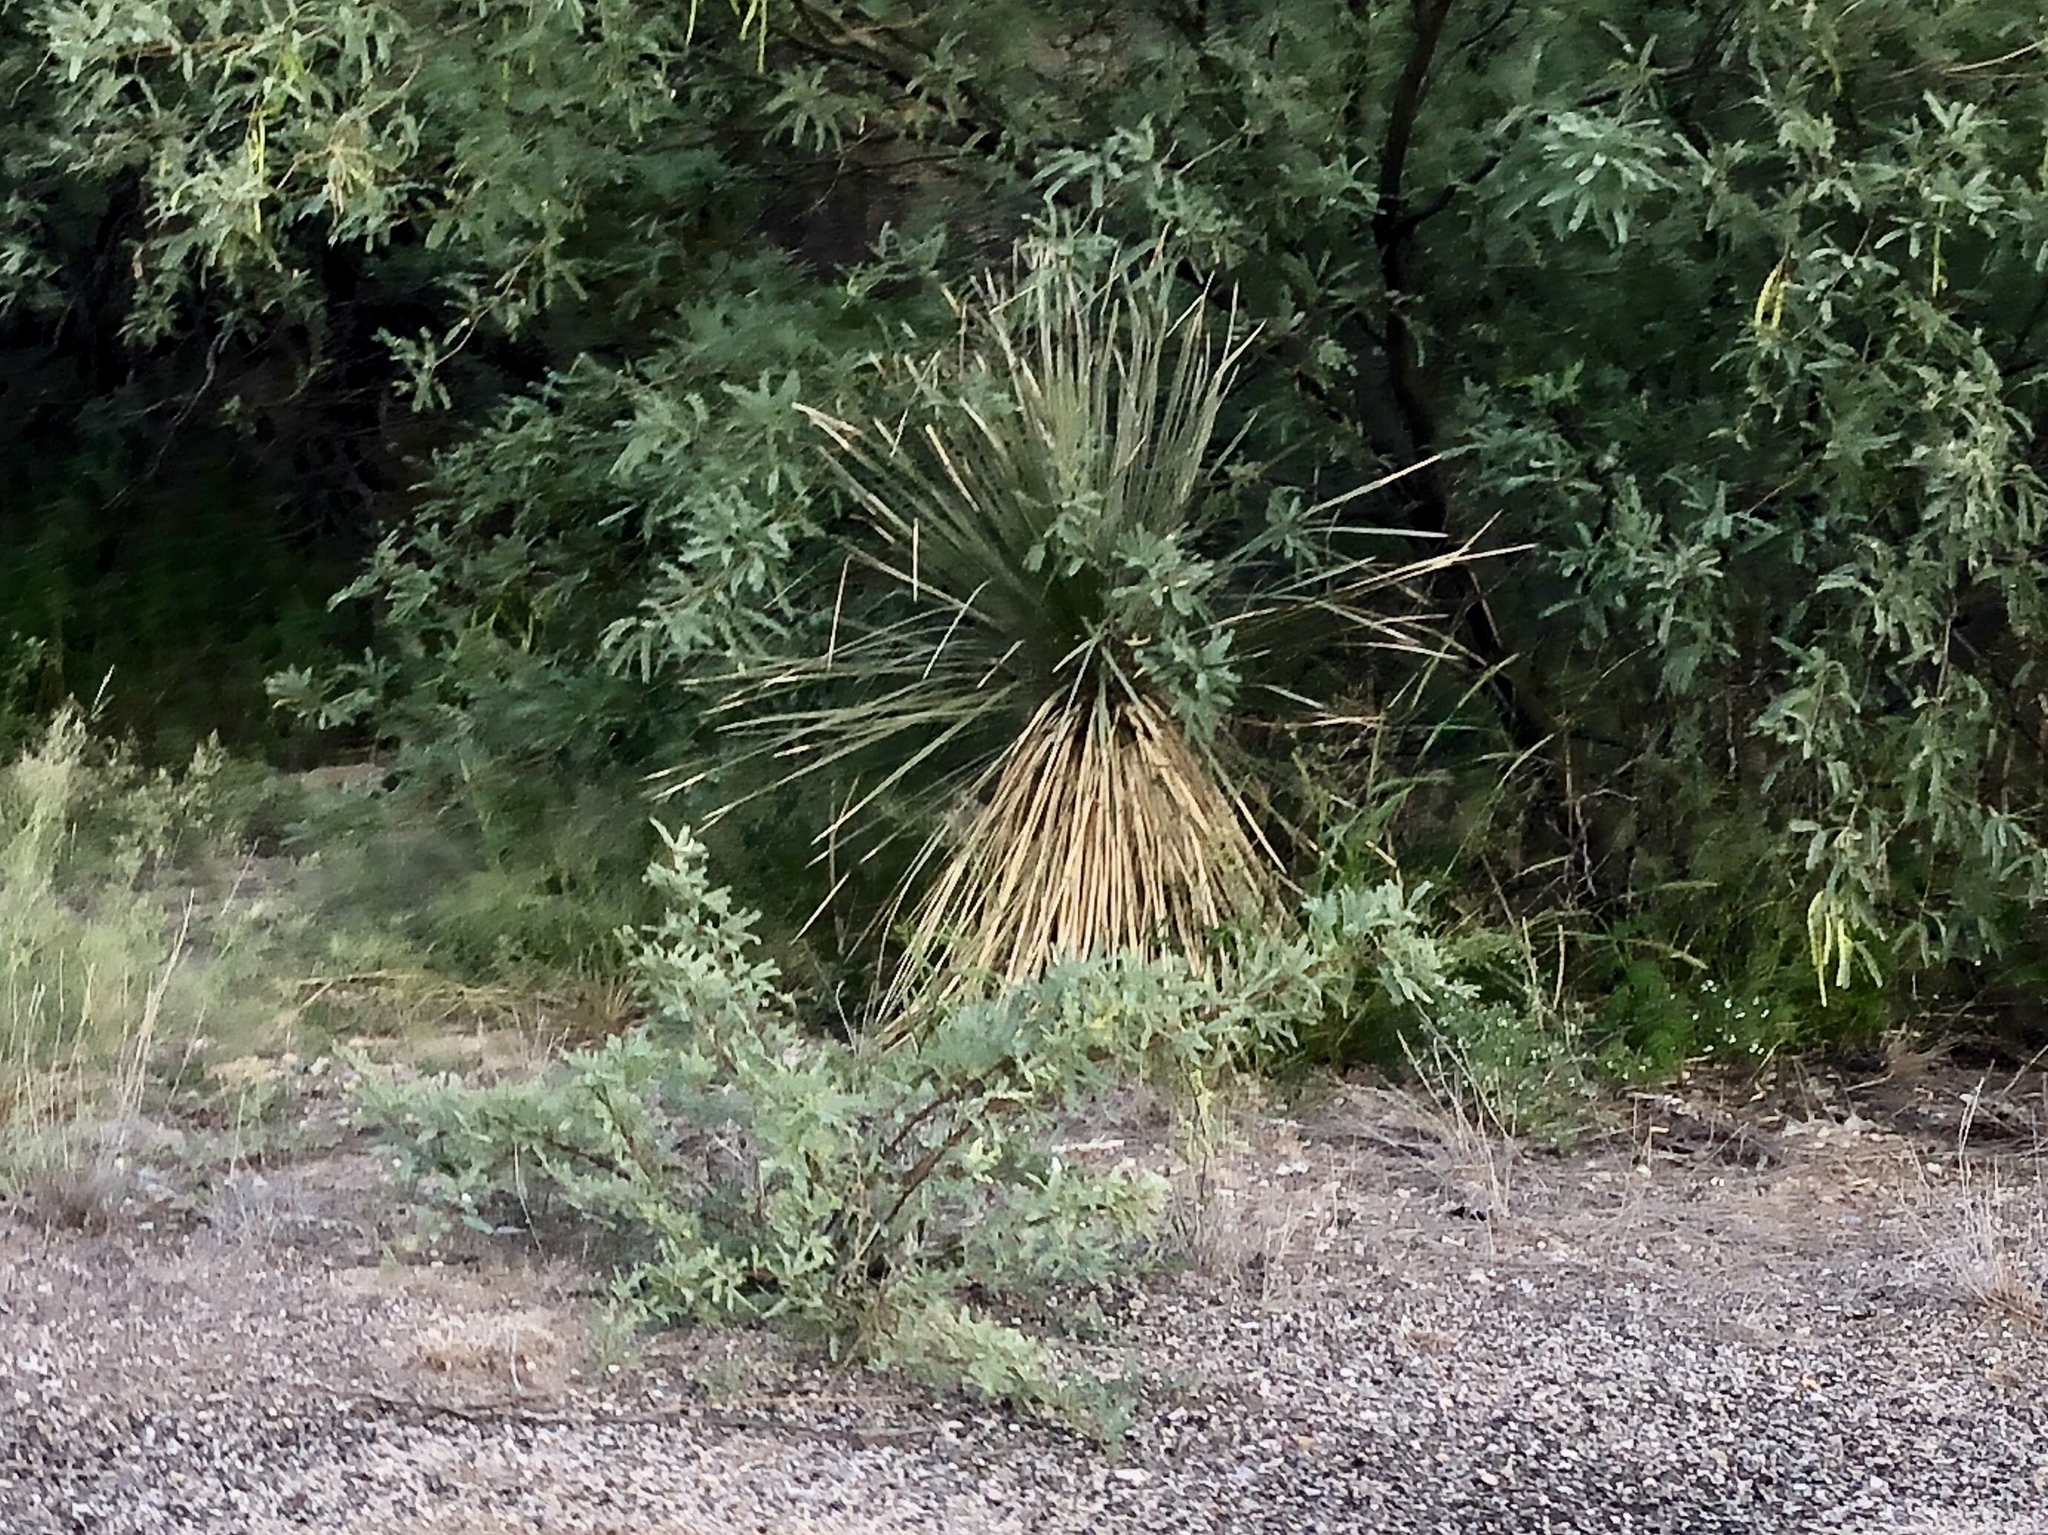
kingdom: Plantae
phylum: Tracheophyta
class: Liliopsida
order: Asparagales
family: Asparagaceae
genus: Yucca
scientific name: Yucca elata
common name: Palmella
